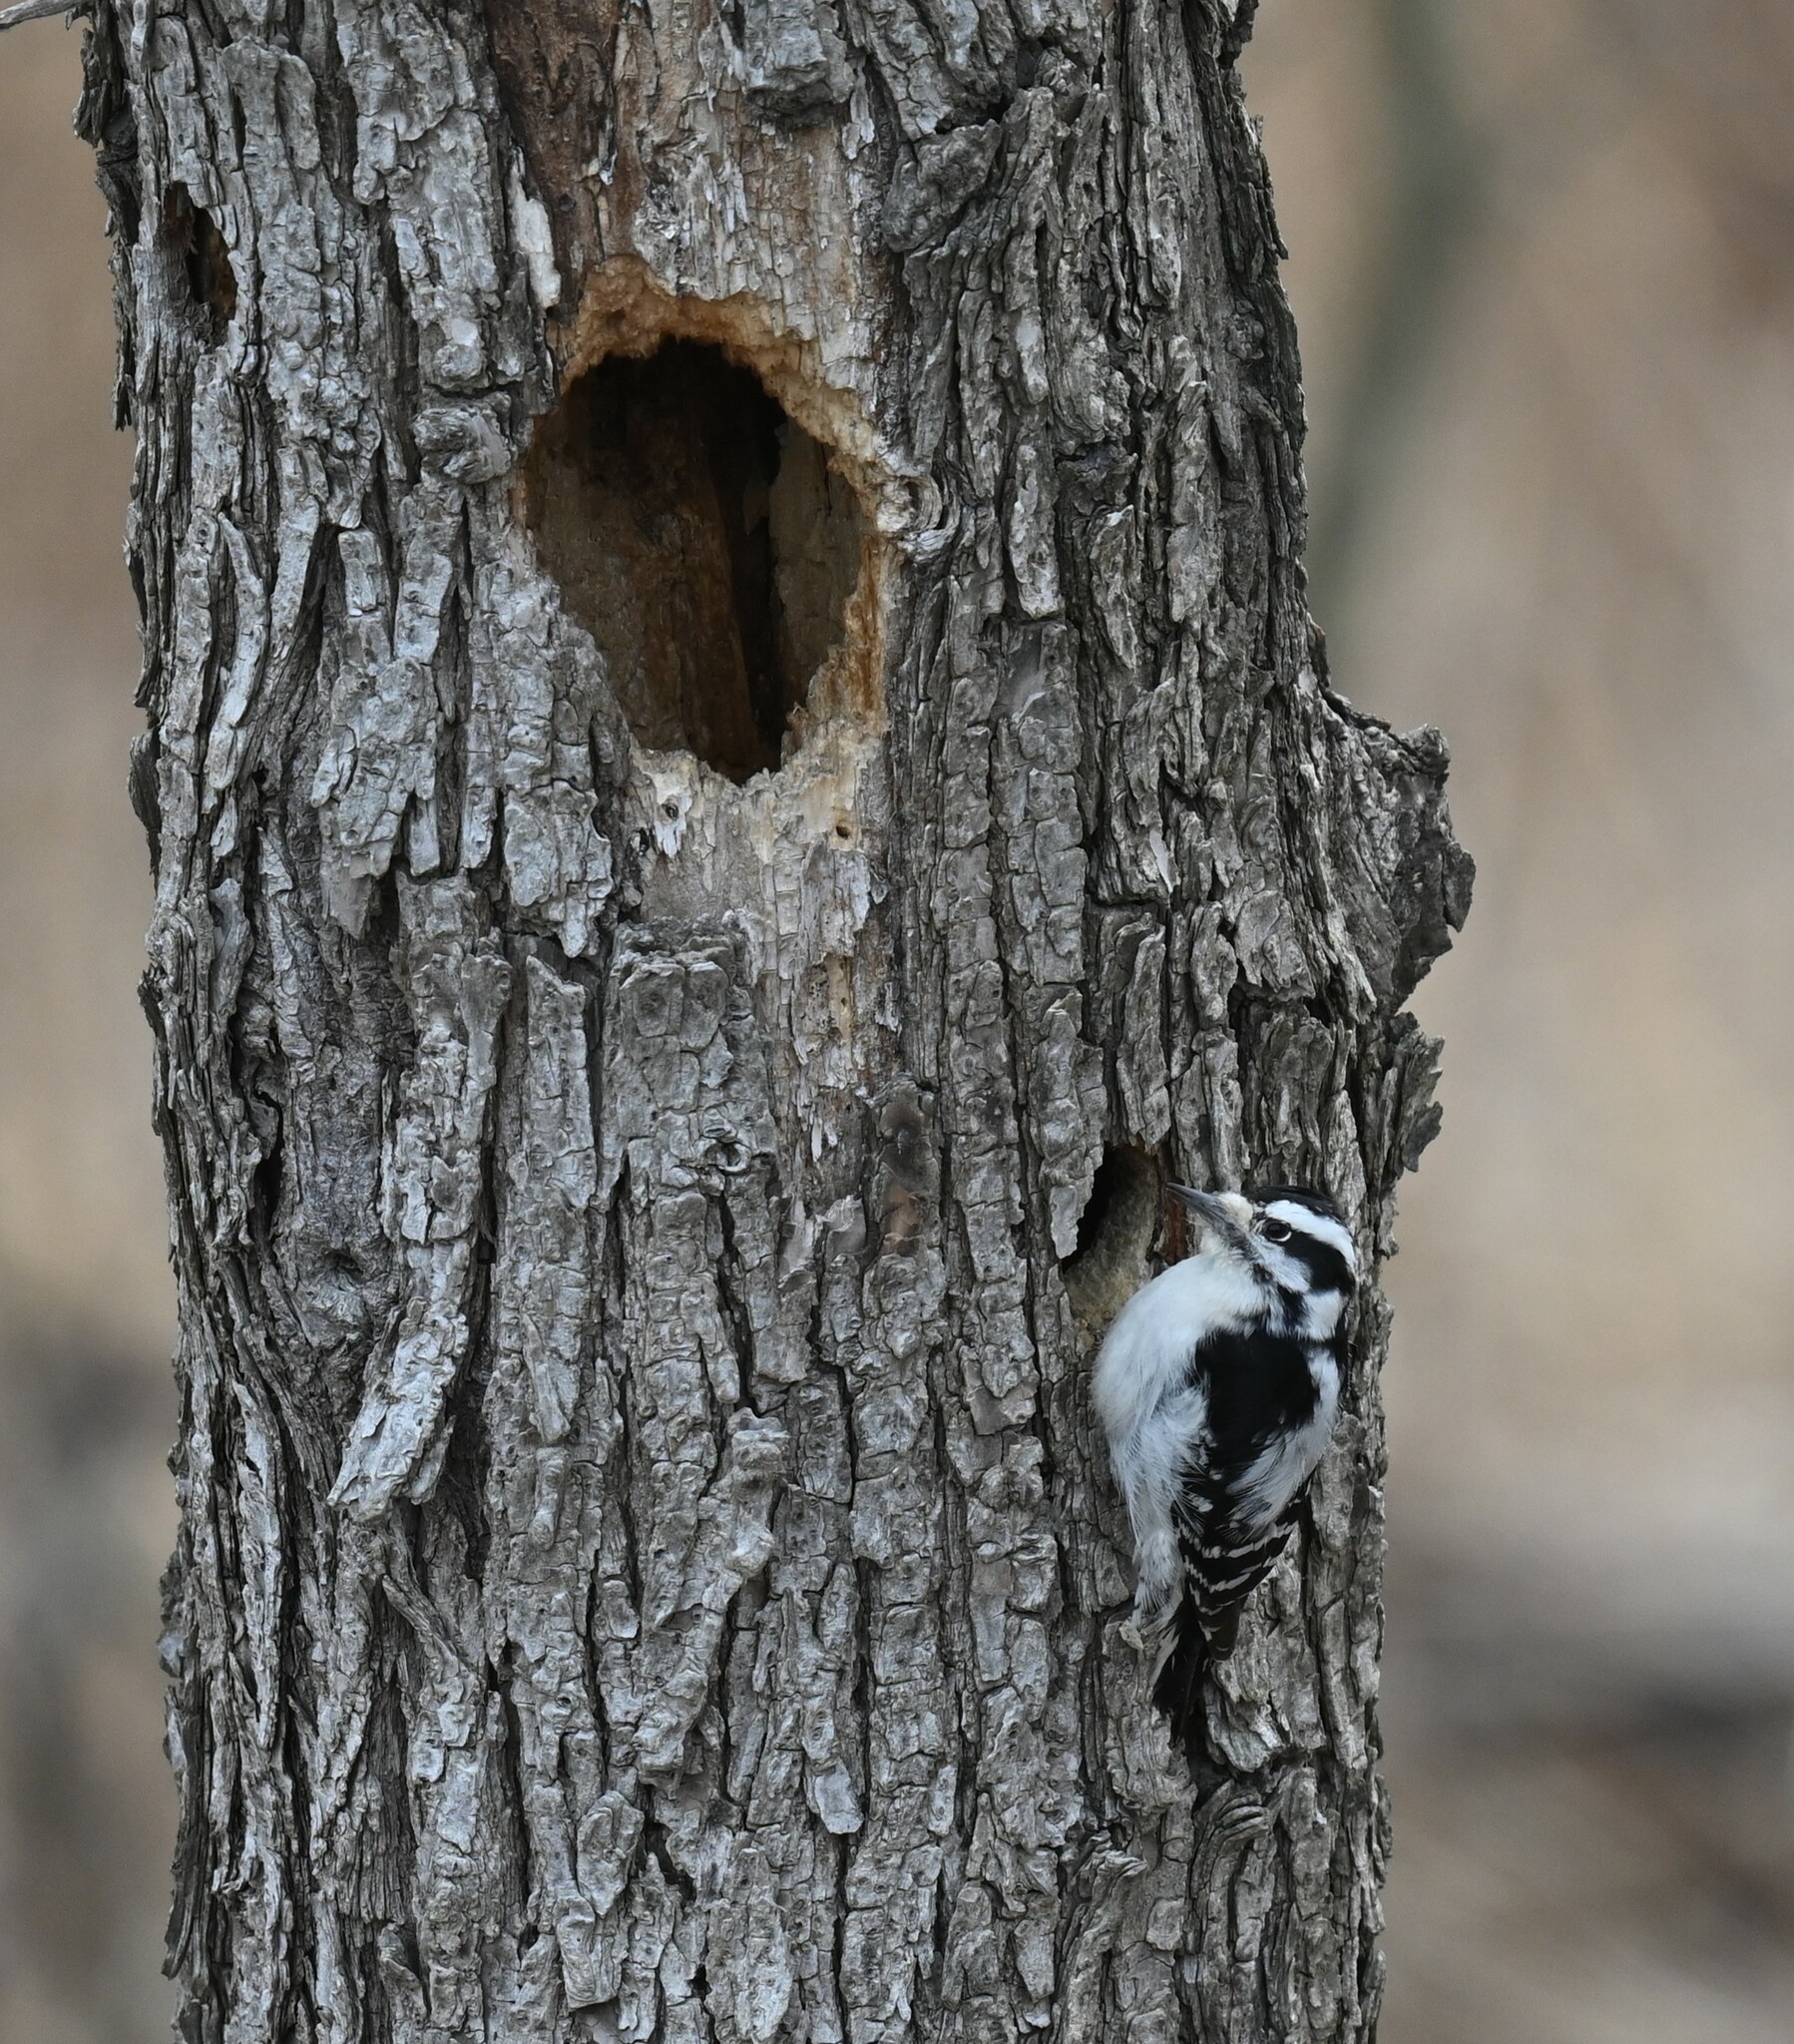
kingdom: Animalia
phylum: Chordata
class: Aves
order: Piciformes
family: Picidae
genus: Dryobates
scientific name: Dryobates pubescens
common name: Downy woodpecker
